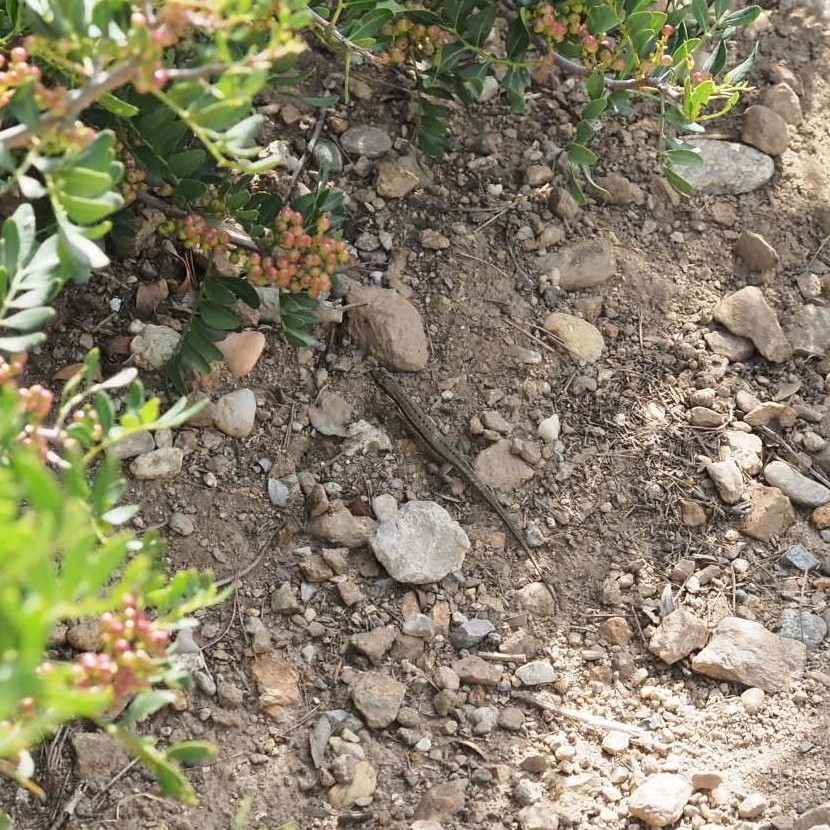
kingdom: Animalia
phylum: Chordata
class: Squamata
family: Lacertidae
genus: Podarcis
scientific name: Podarcis muralis
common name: Common wall lizard
